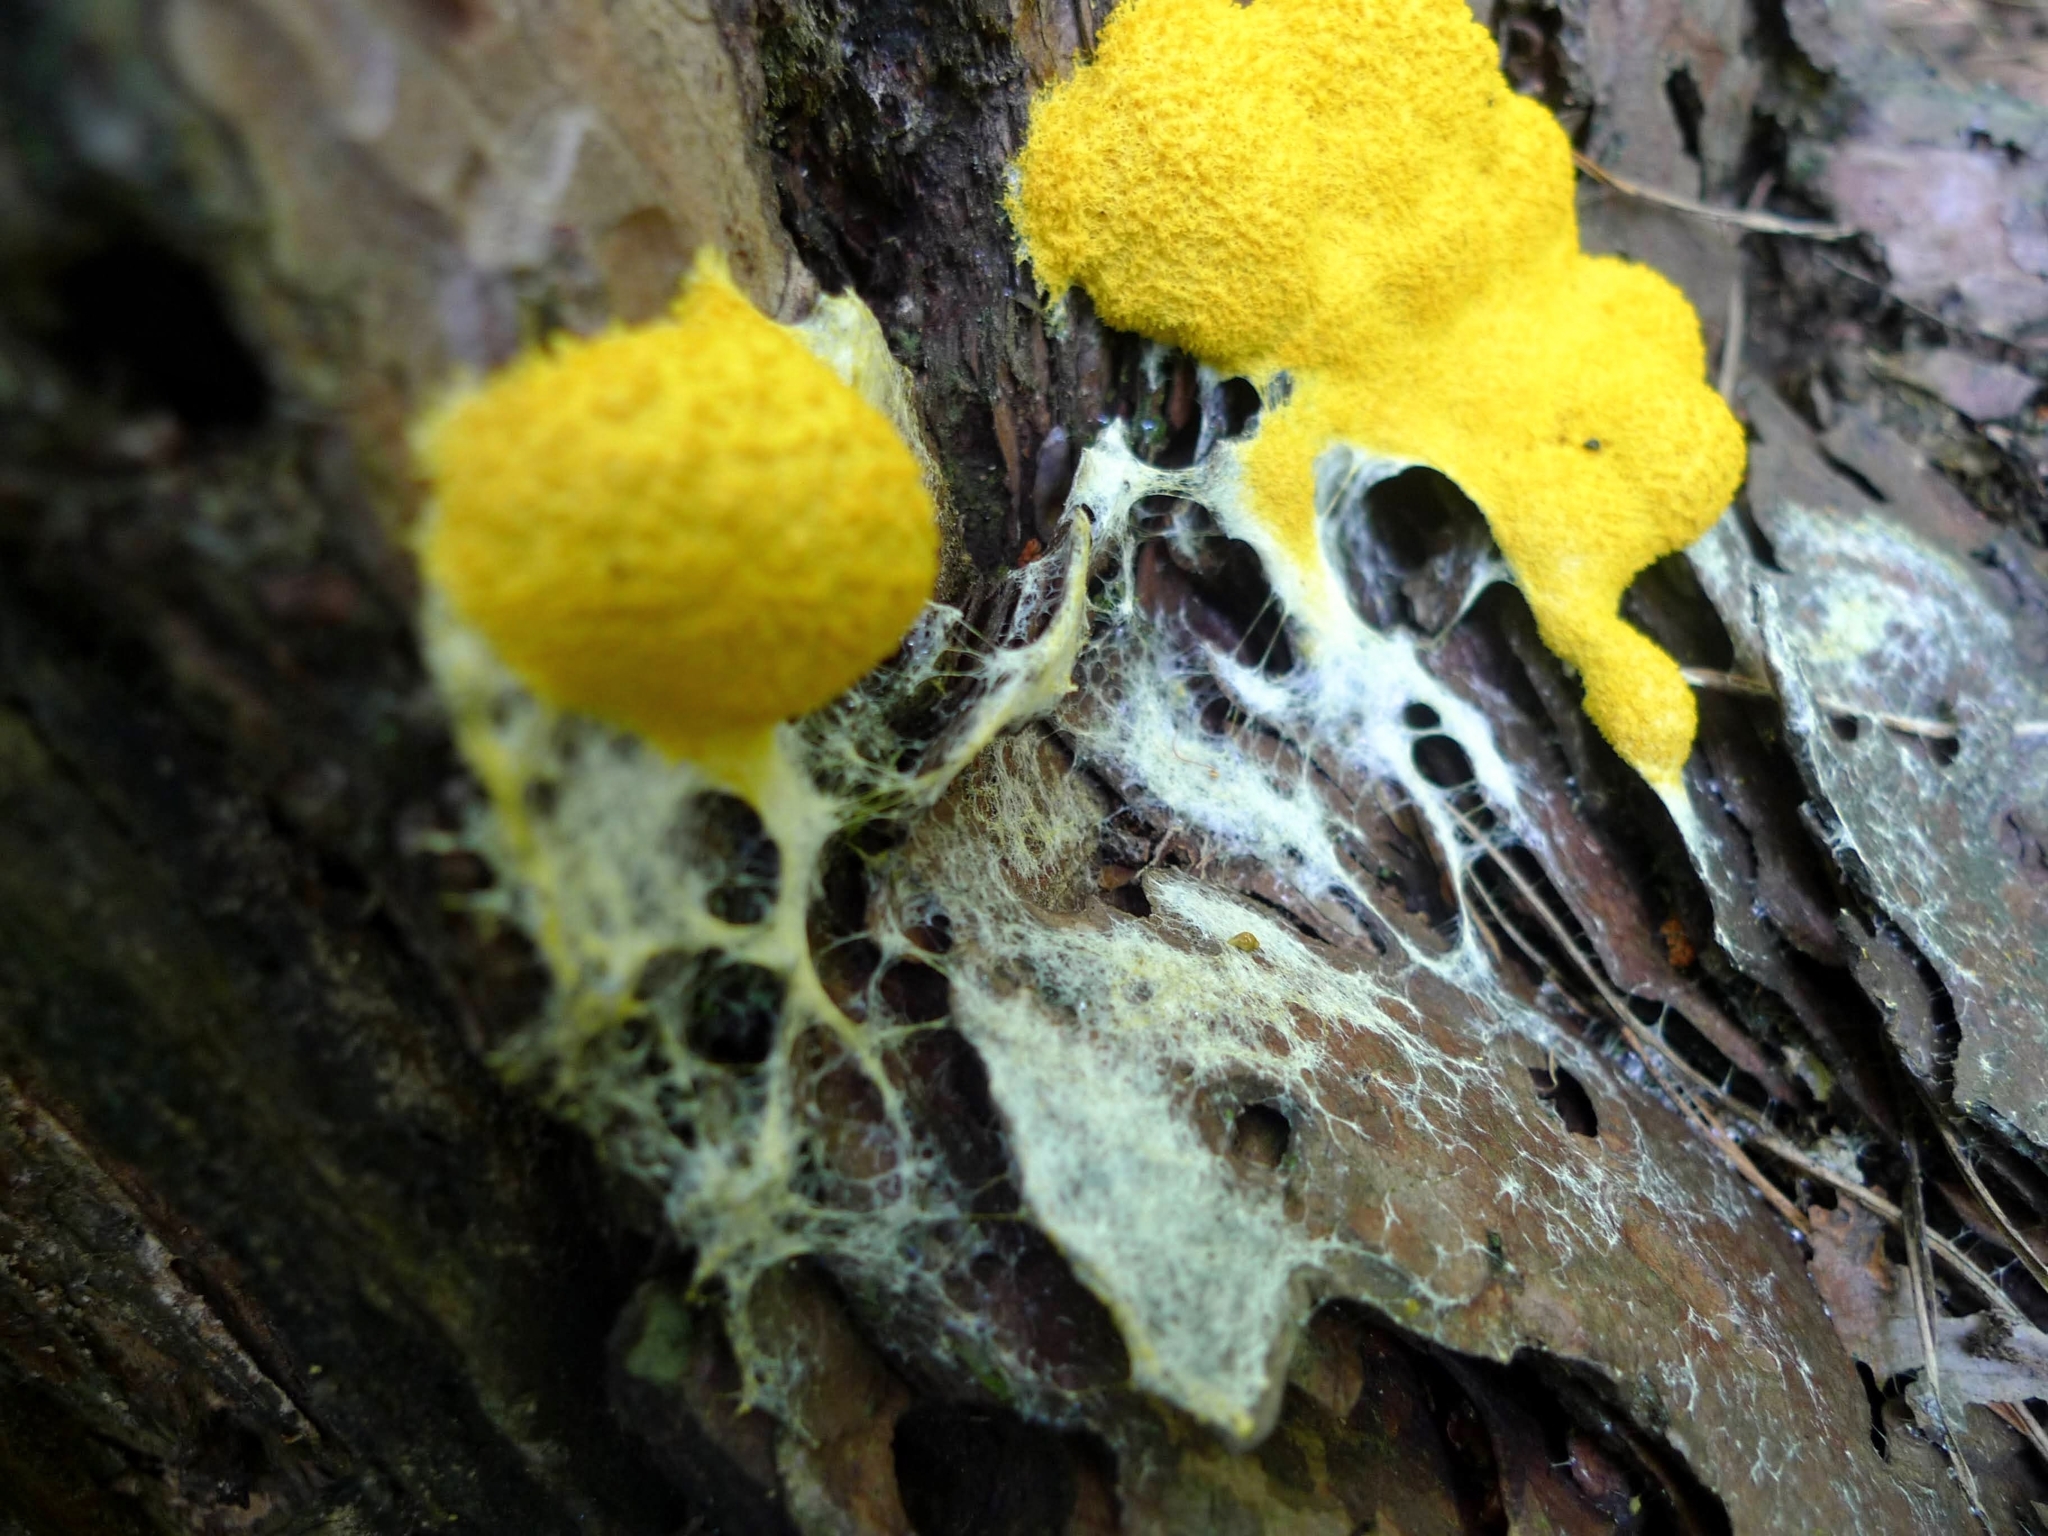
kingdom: Protozoa
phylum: Mycetozoa
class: Myxomycetes
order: Physarales
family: Physaraceae
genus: Fuligo
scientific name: Fuligo septica
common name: Dog vomit slime mold
